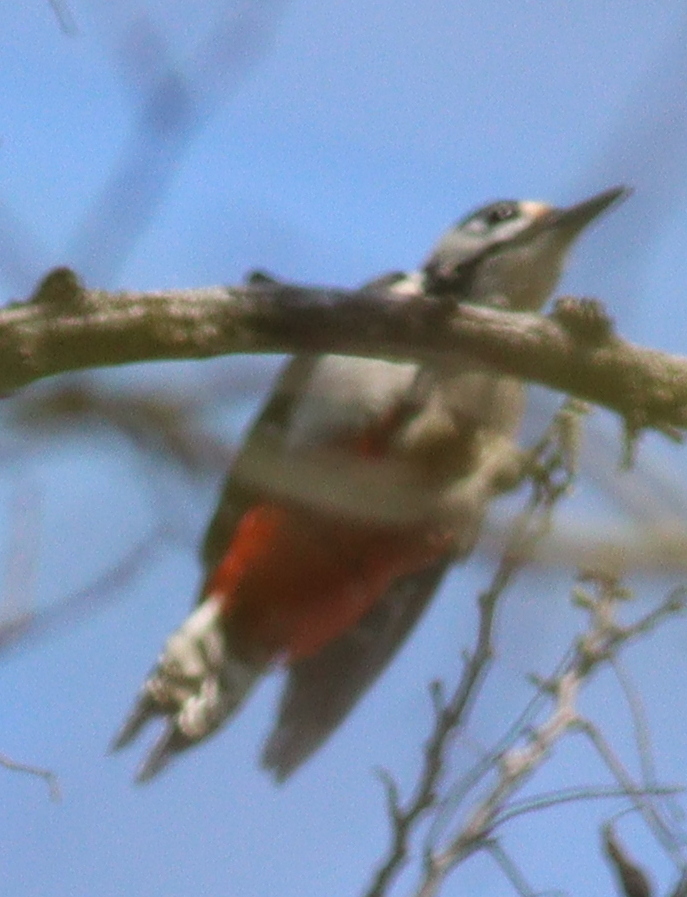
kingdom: Animalia
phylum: Chordata
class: Aves
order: Piciformes
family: Picidae
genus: Dendrocopos
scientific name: Dendrocopos major
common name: Great spotted woodpecker
